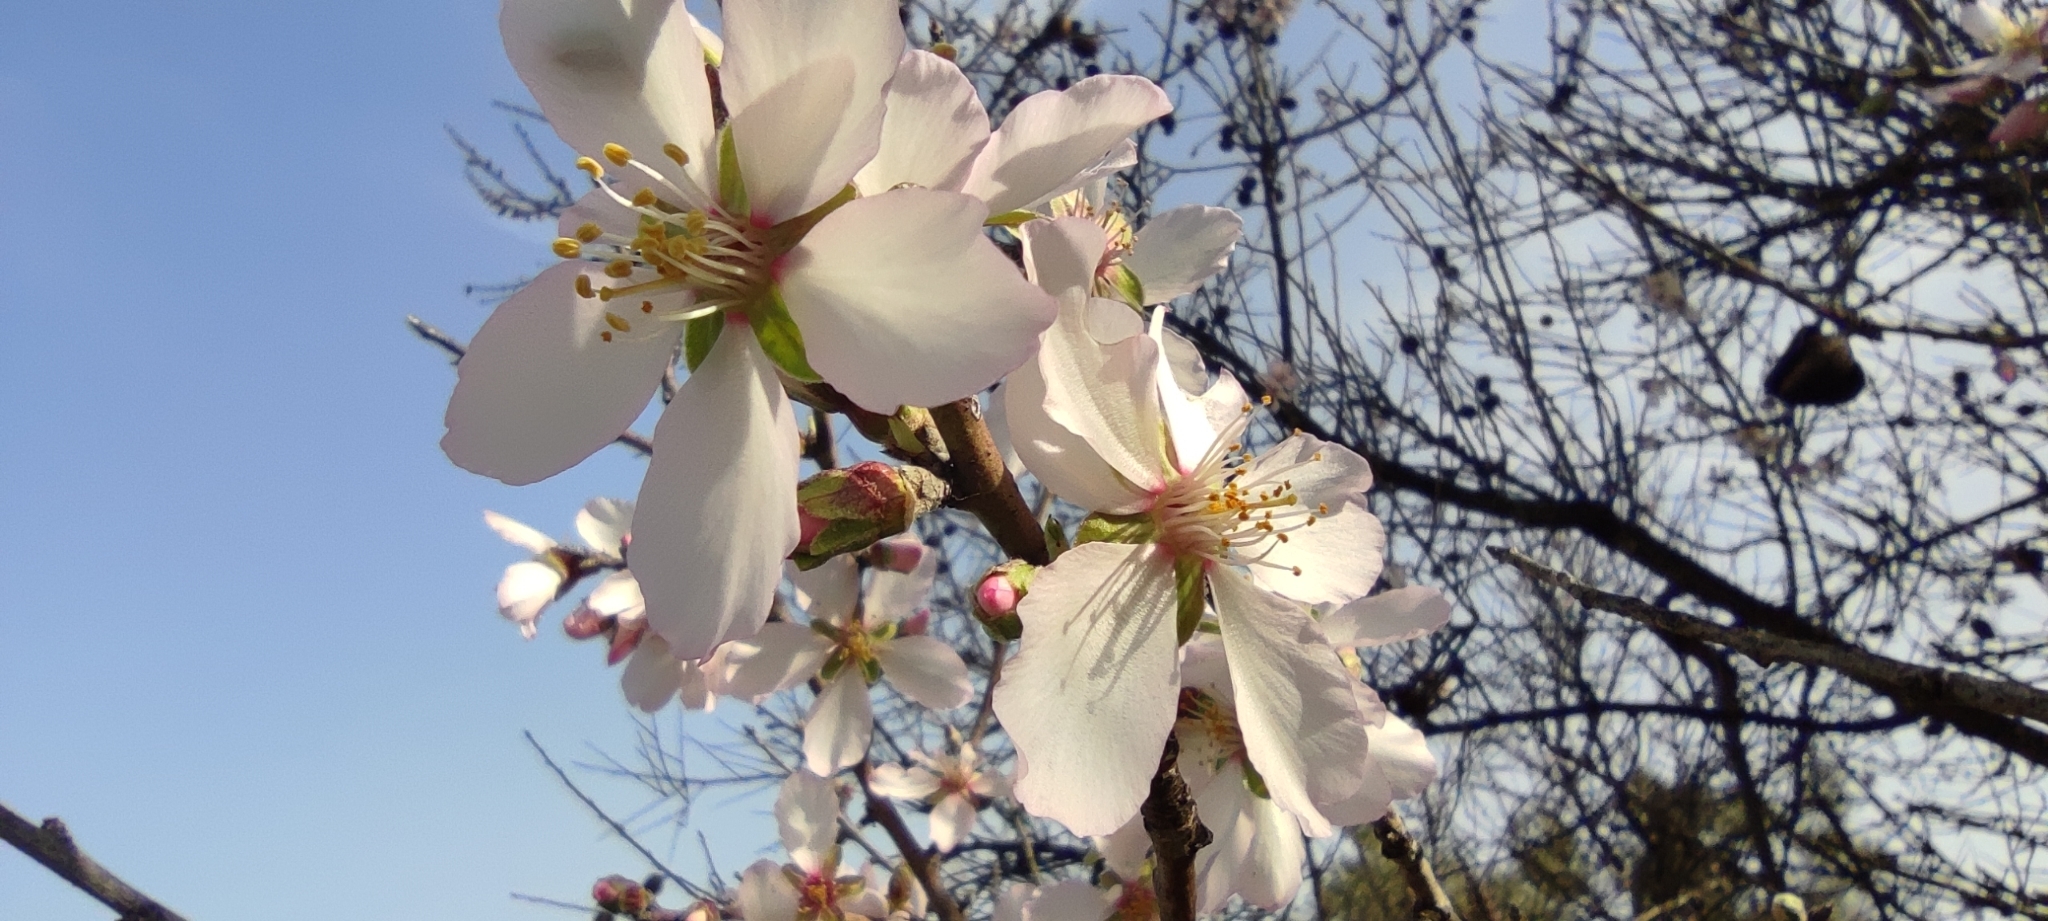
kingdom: Plantae
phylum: Tracheophyta
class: Magnoliopsida
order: Rosales
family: Rosaceae
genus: Prunus
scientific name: Prunus amygdalus
